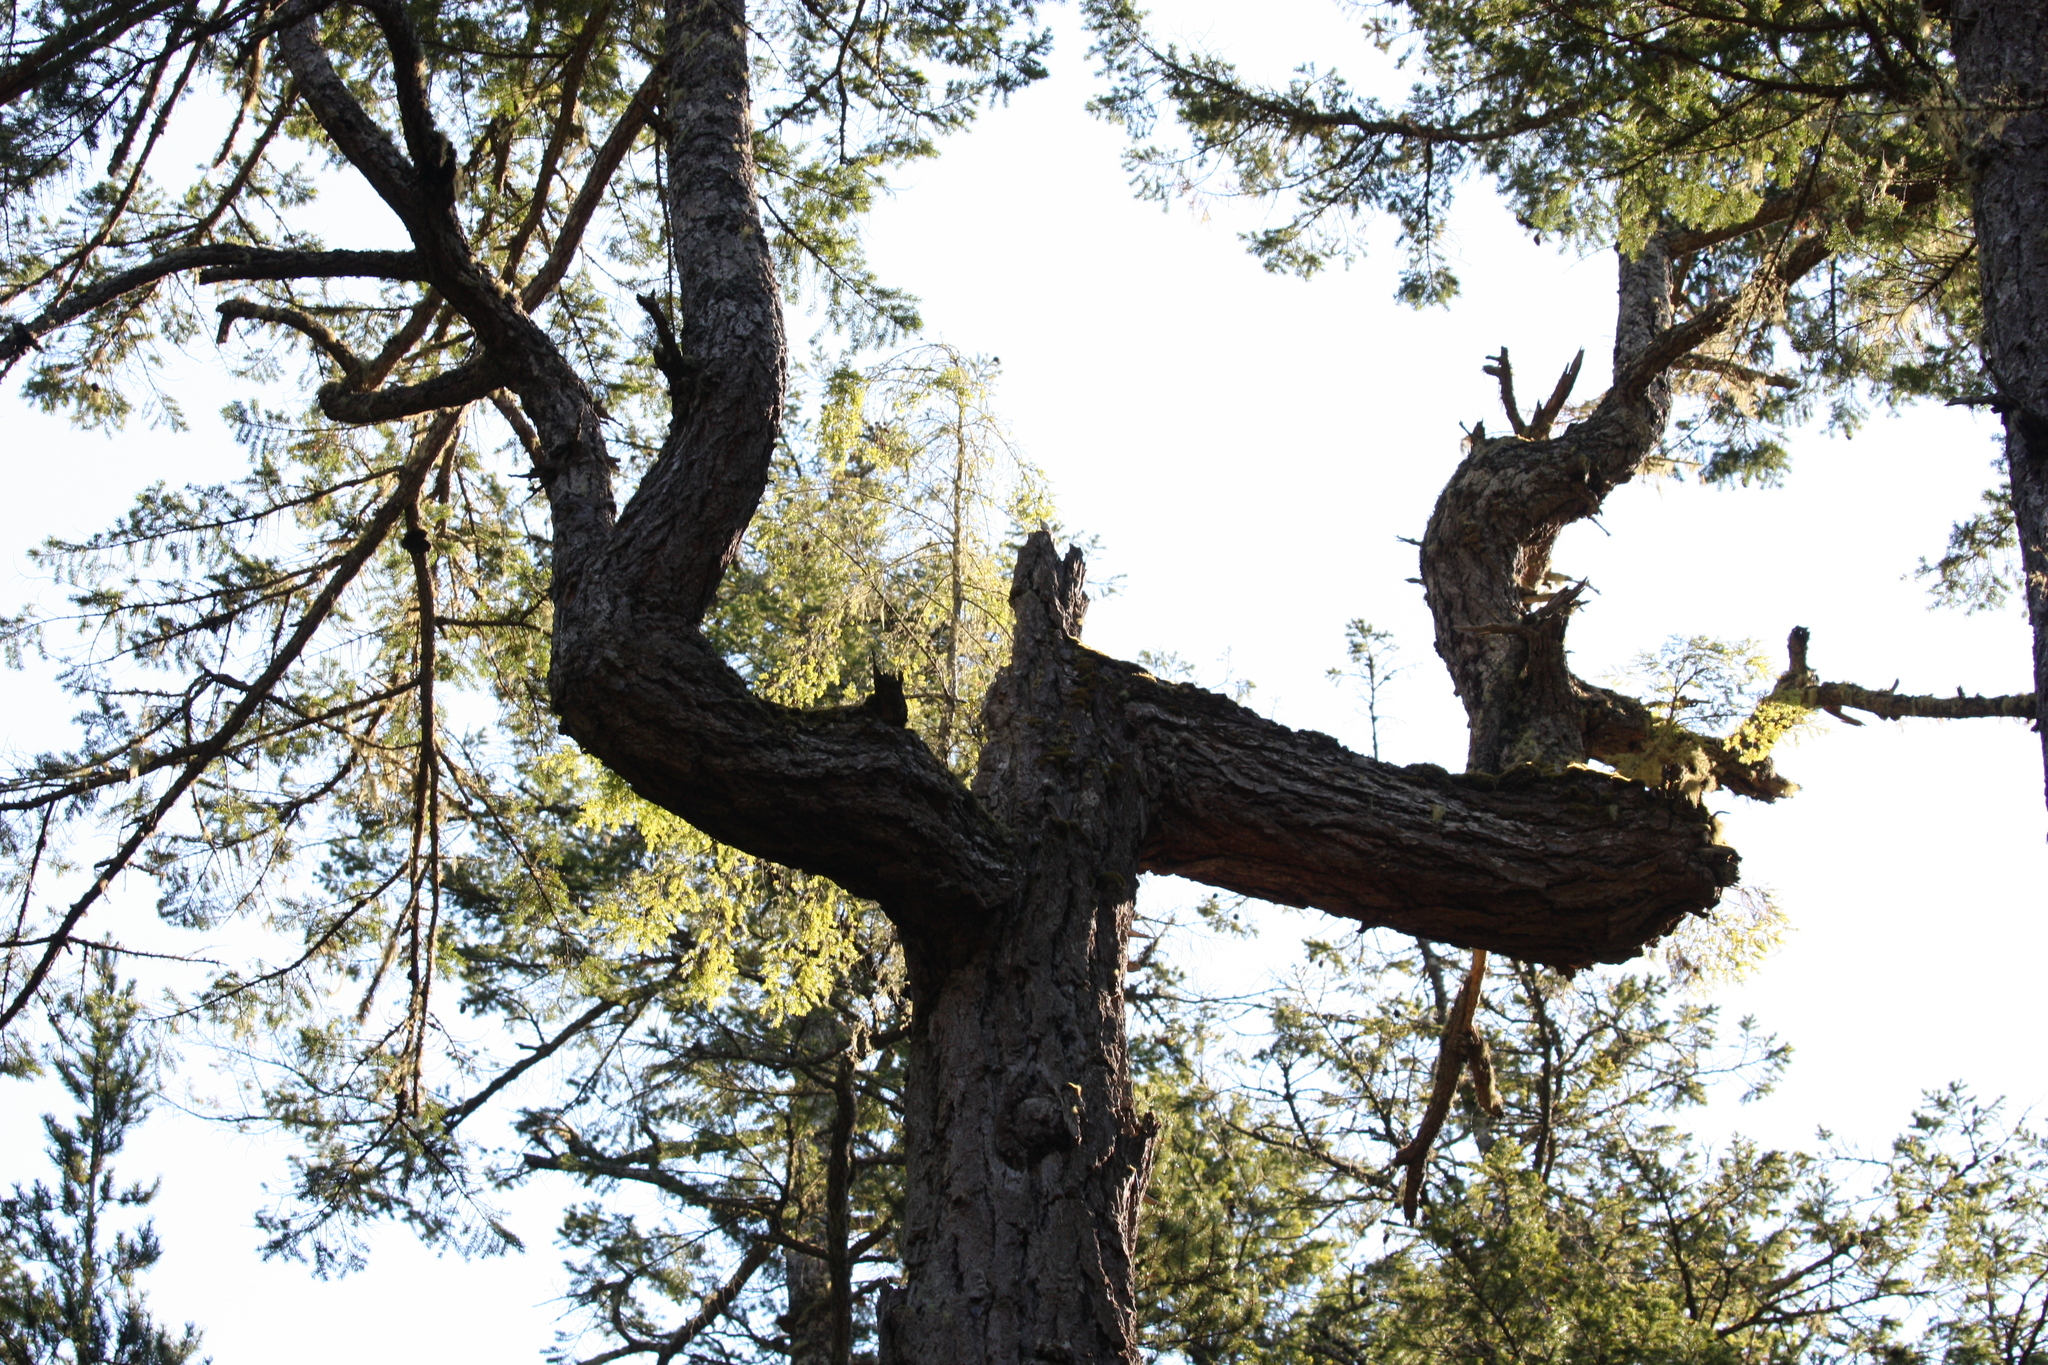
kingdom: Plantae
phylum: Tracheophyta
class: Pinopsida
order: Pinales
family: Pinaceae
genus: Pseudotsuga
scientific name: Pseudotsuga menziesii
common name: Douglas fir
